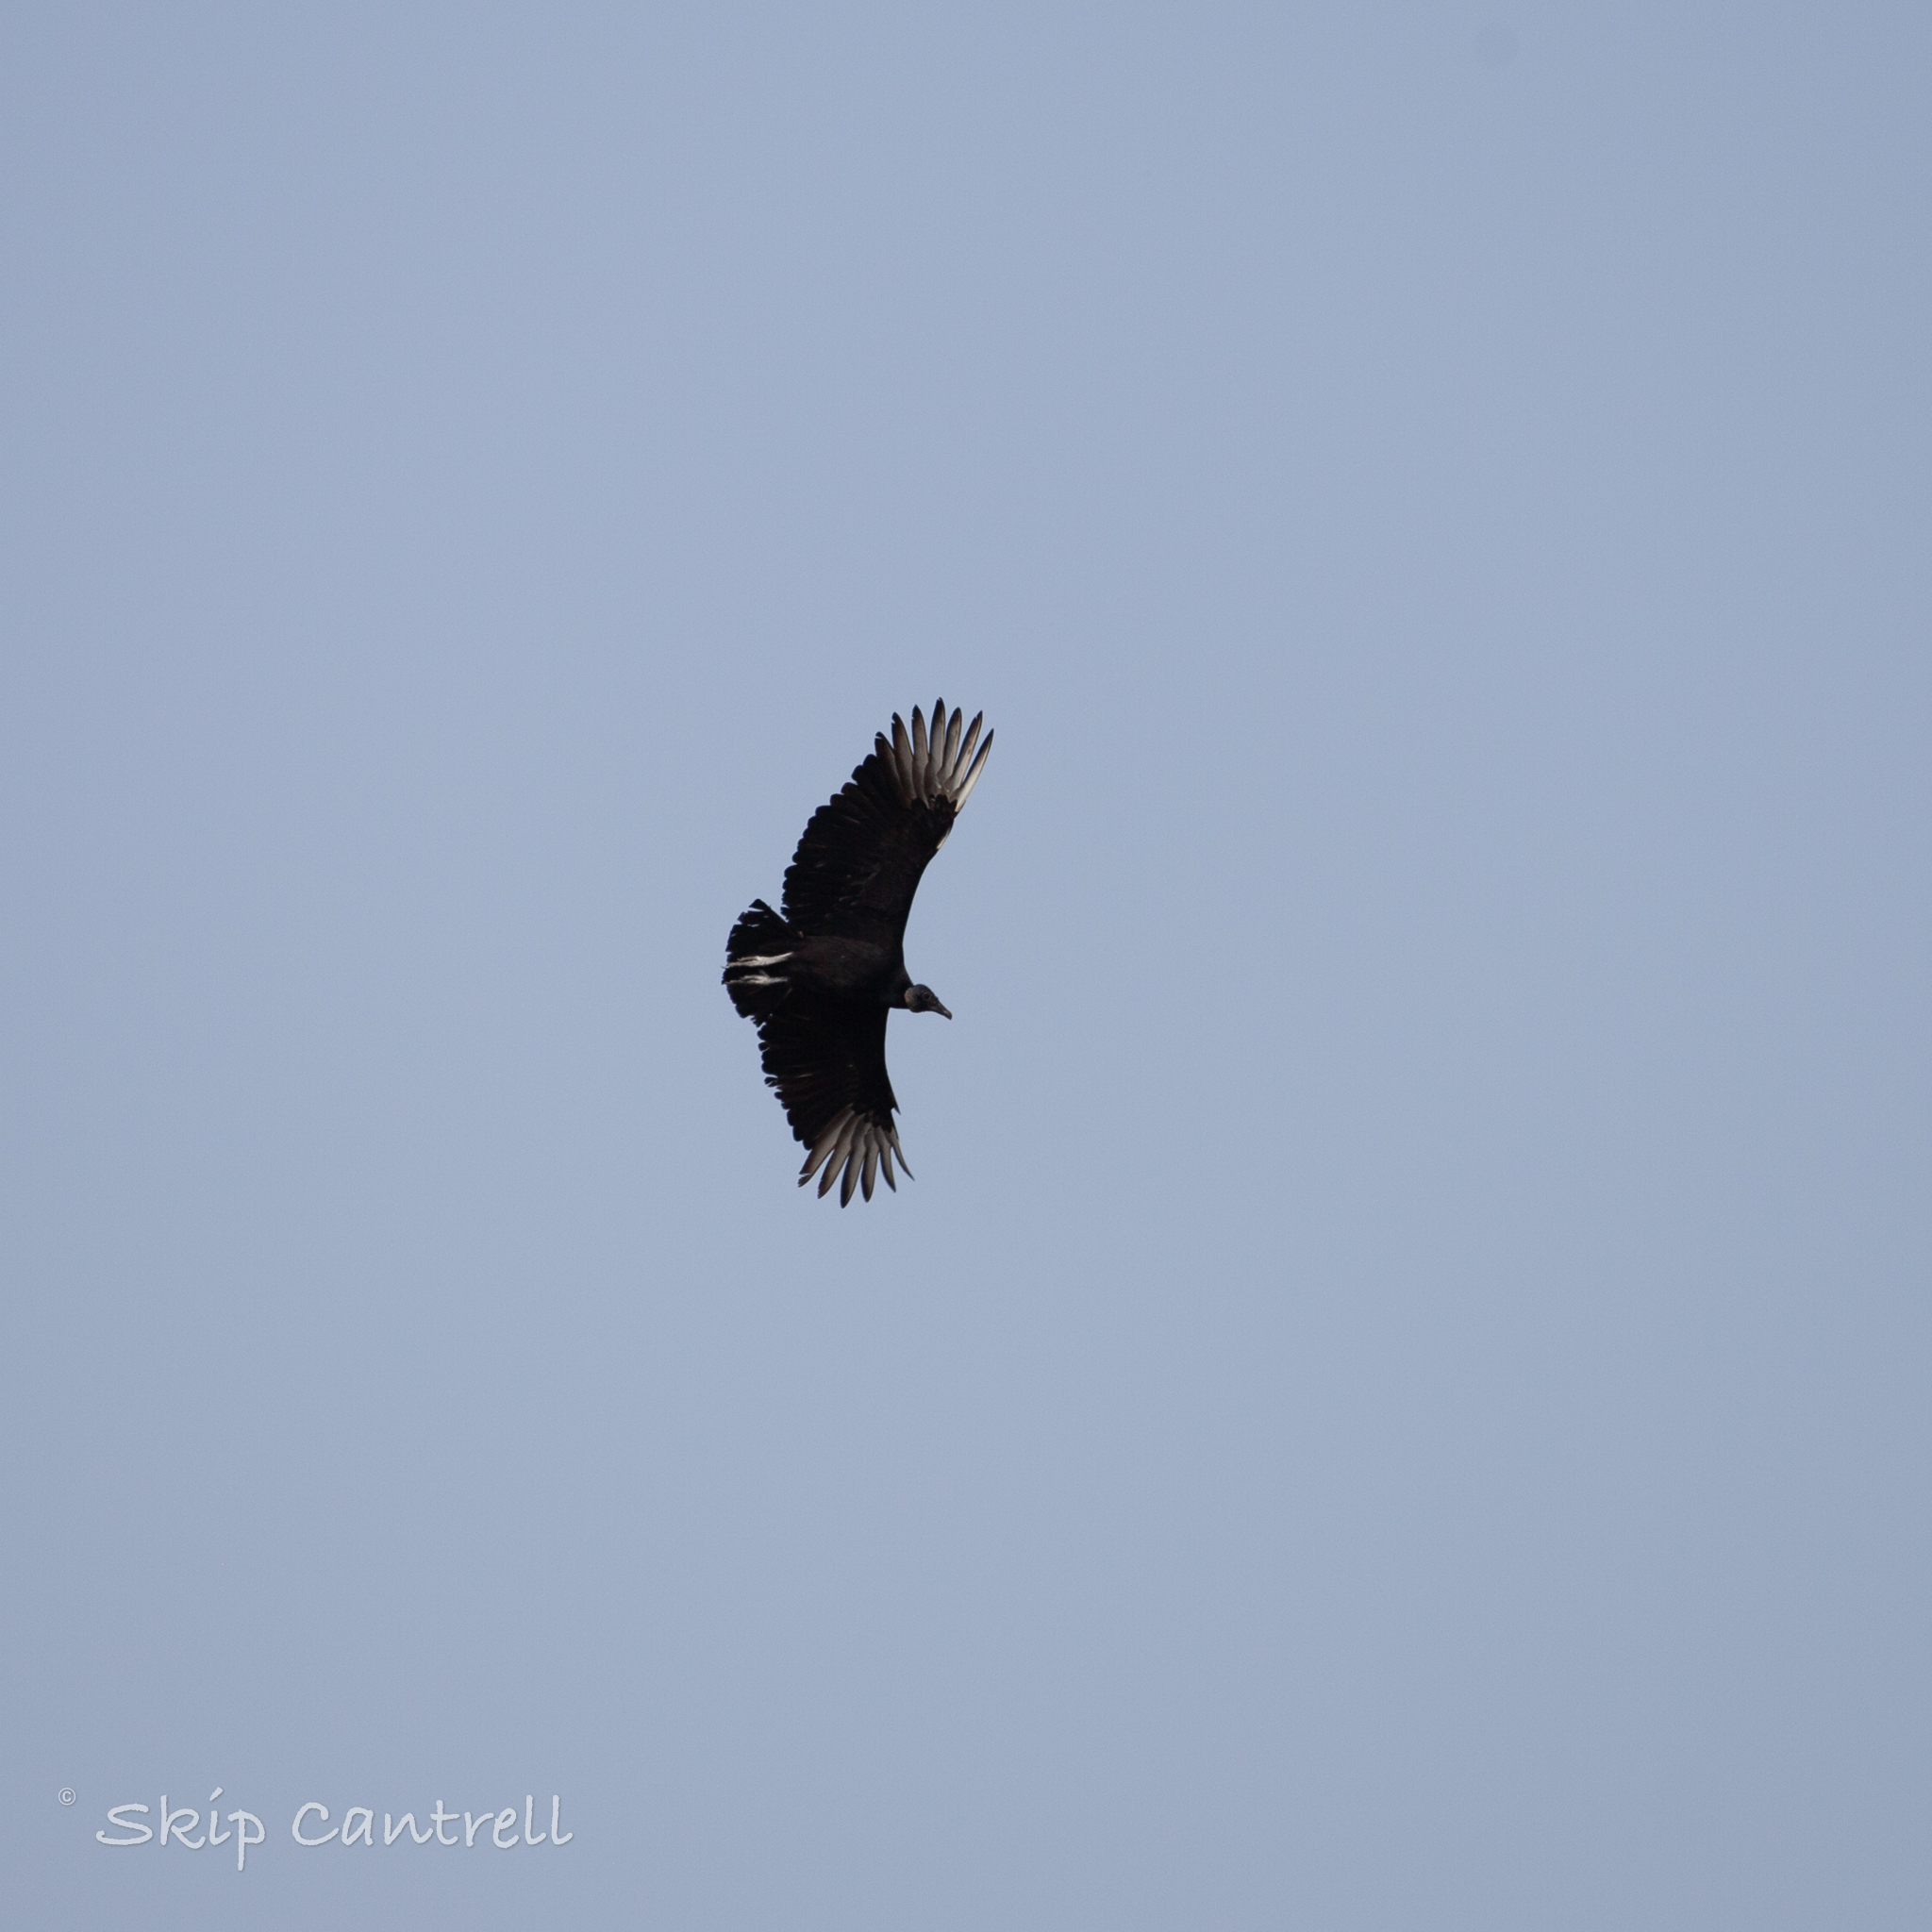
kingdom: Animalia
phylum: Chordata
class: Aves
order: Accipitriformes
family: Cathartidae
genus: Coragyps
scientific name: Coragyps atratus
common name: Black vulture
